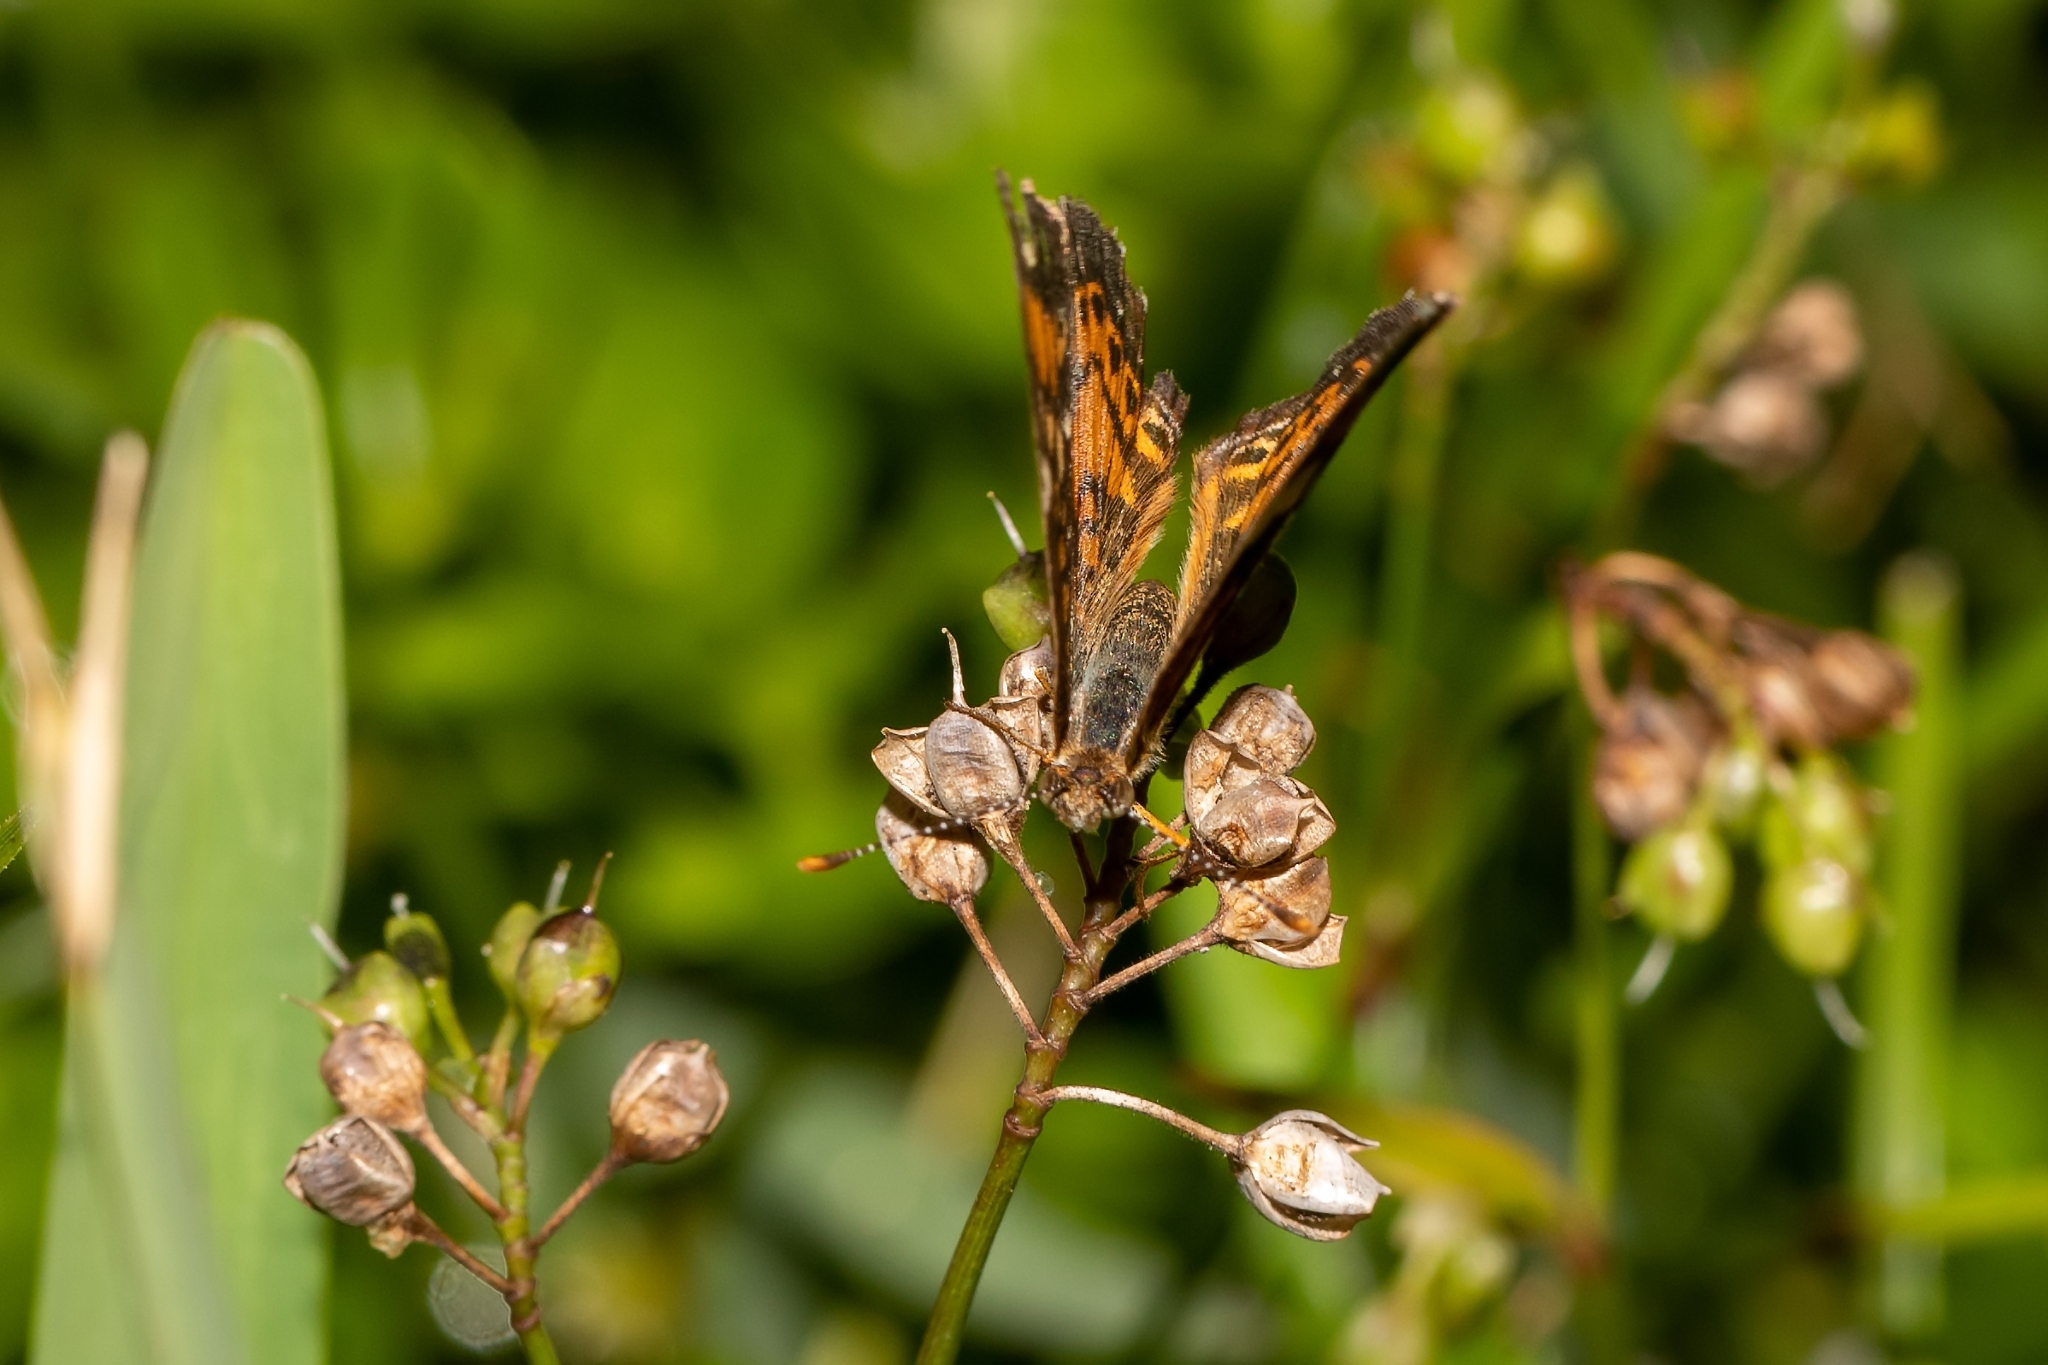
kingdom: Animalia
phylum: Arthropoda
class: Insecta
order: Lepidoptera
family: Nymphalidae
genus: Phyciodes
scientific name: Phyciodes phaon
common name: Phaon crescent
